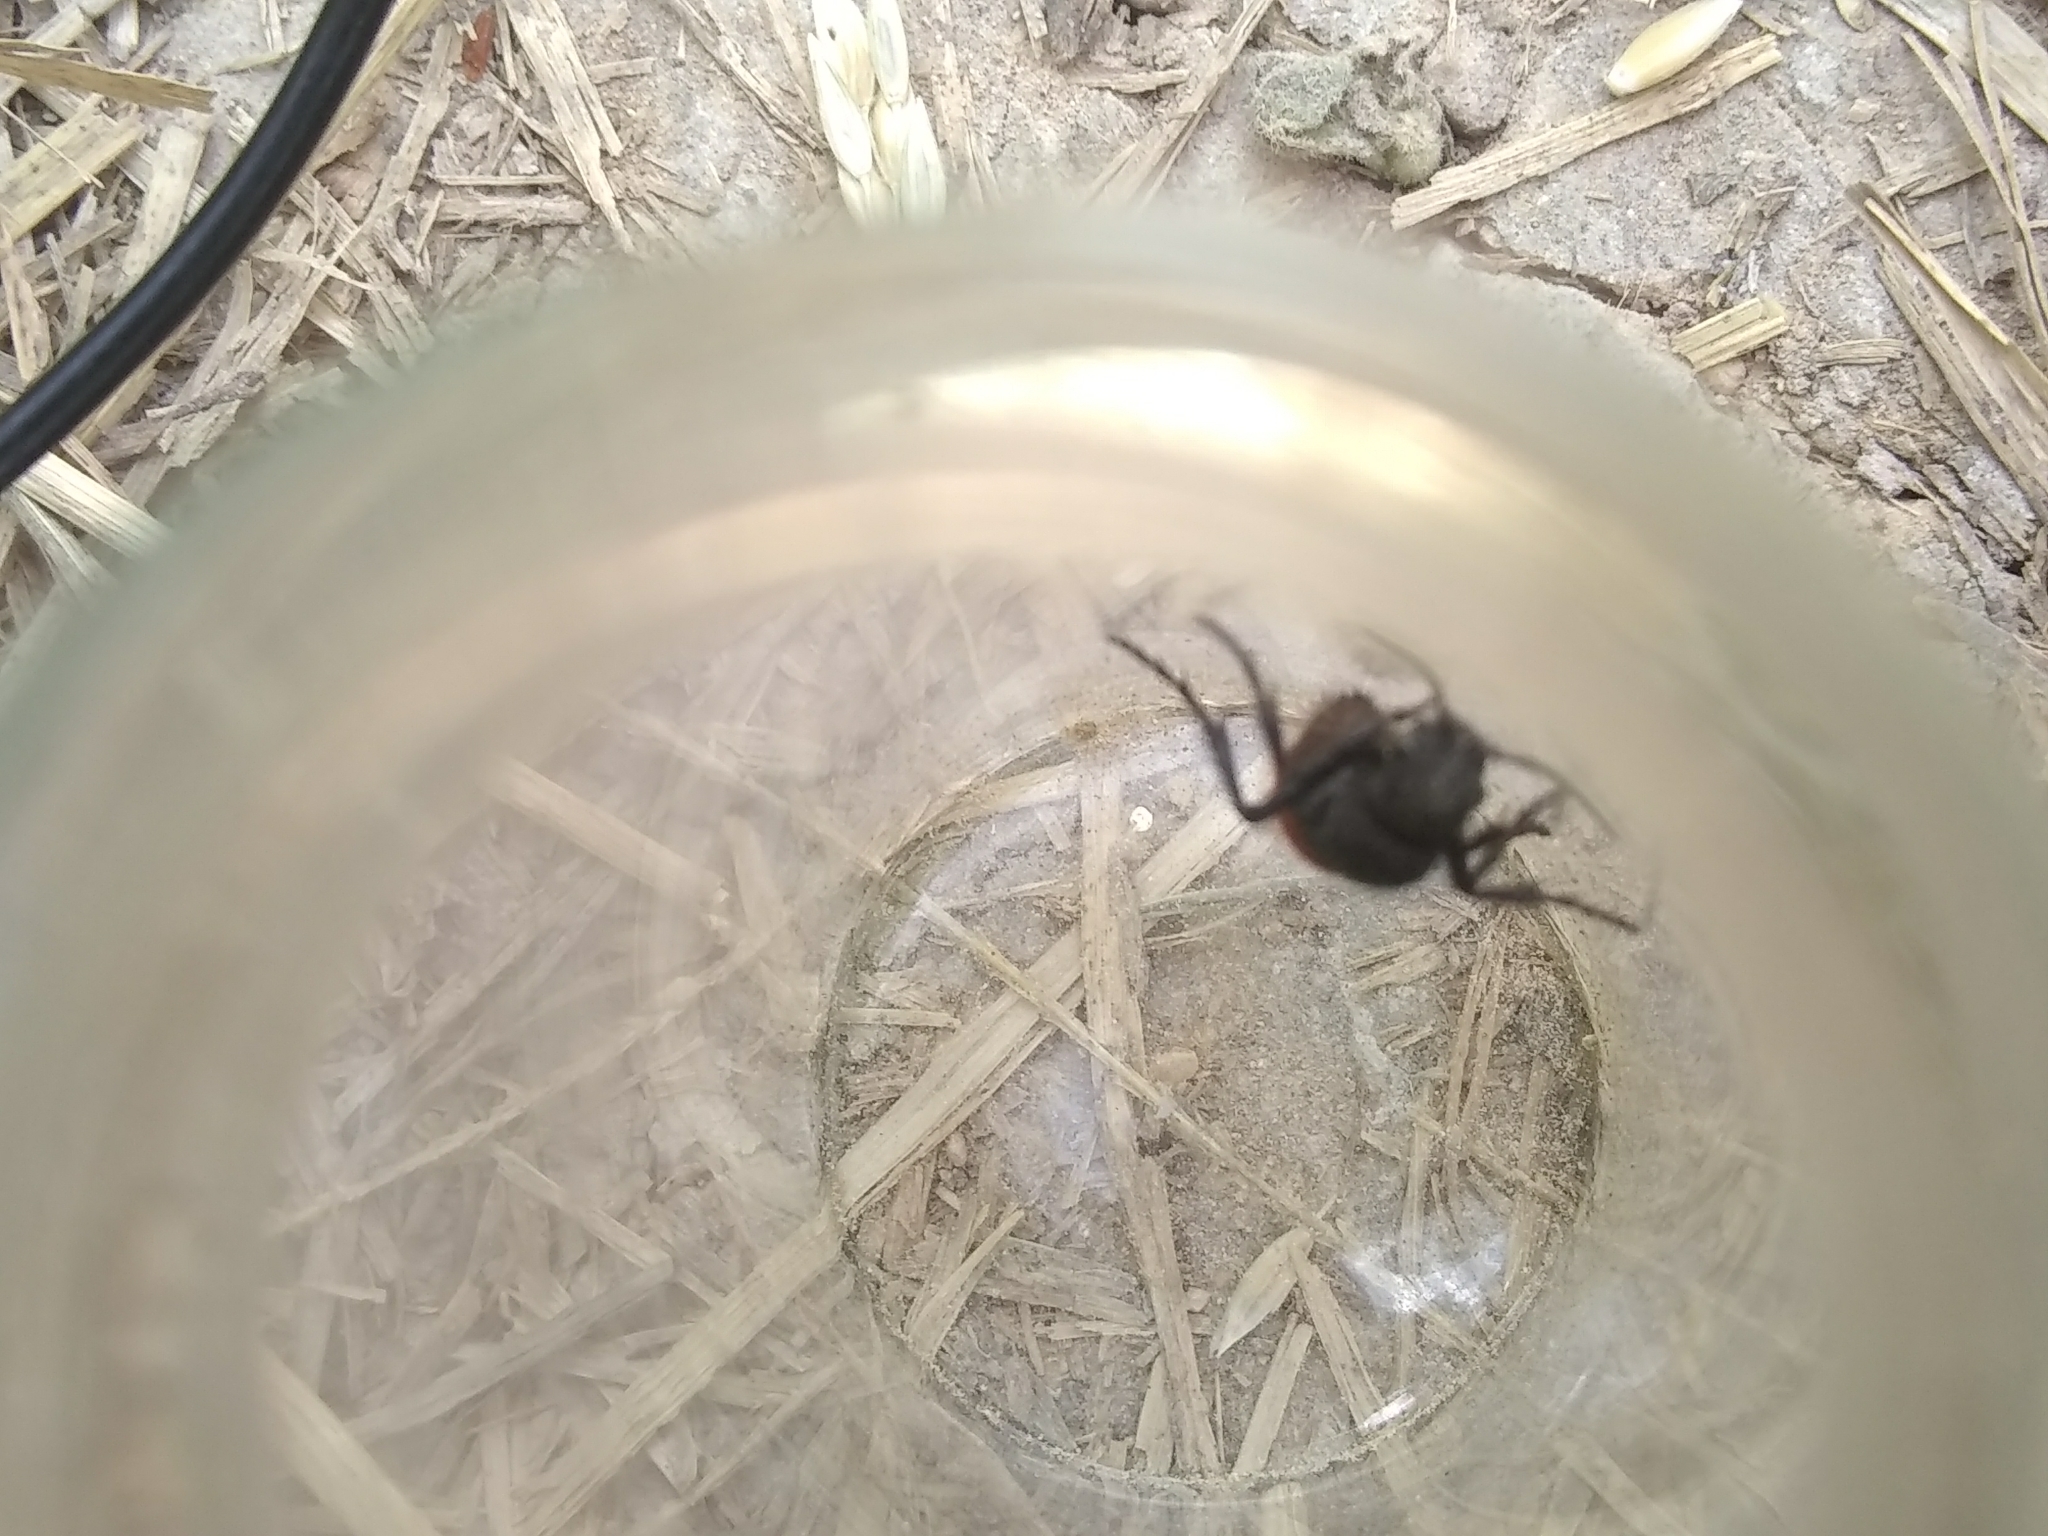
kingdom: Animalia
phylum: Arthropoda
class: Insecta
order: Hymenoptera
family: Mutillidae
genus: Dasymutilla
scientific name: Dasymutilla
